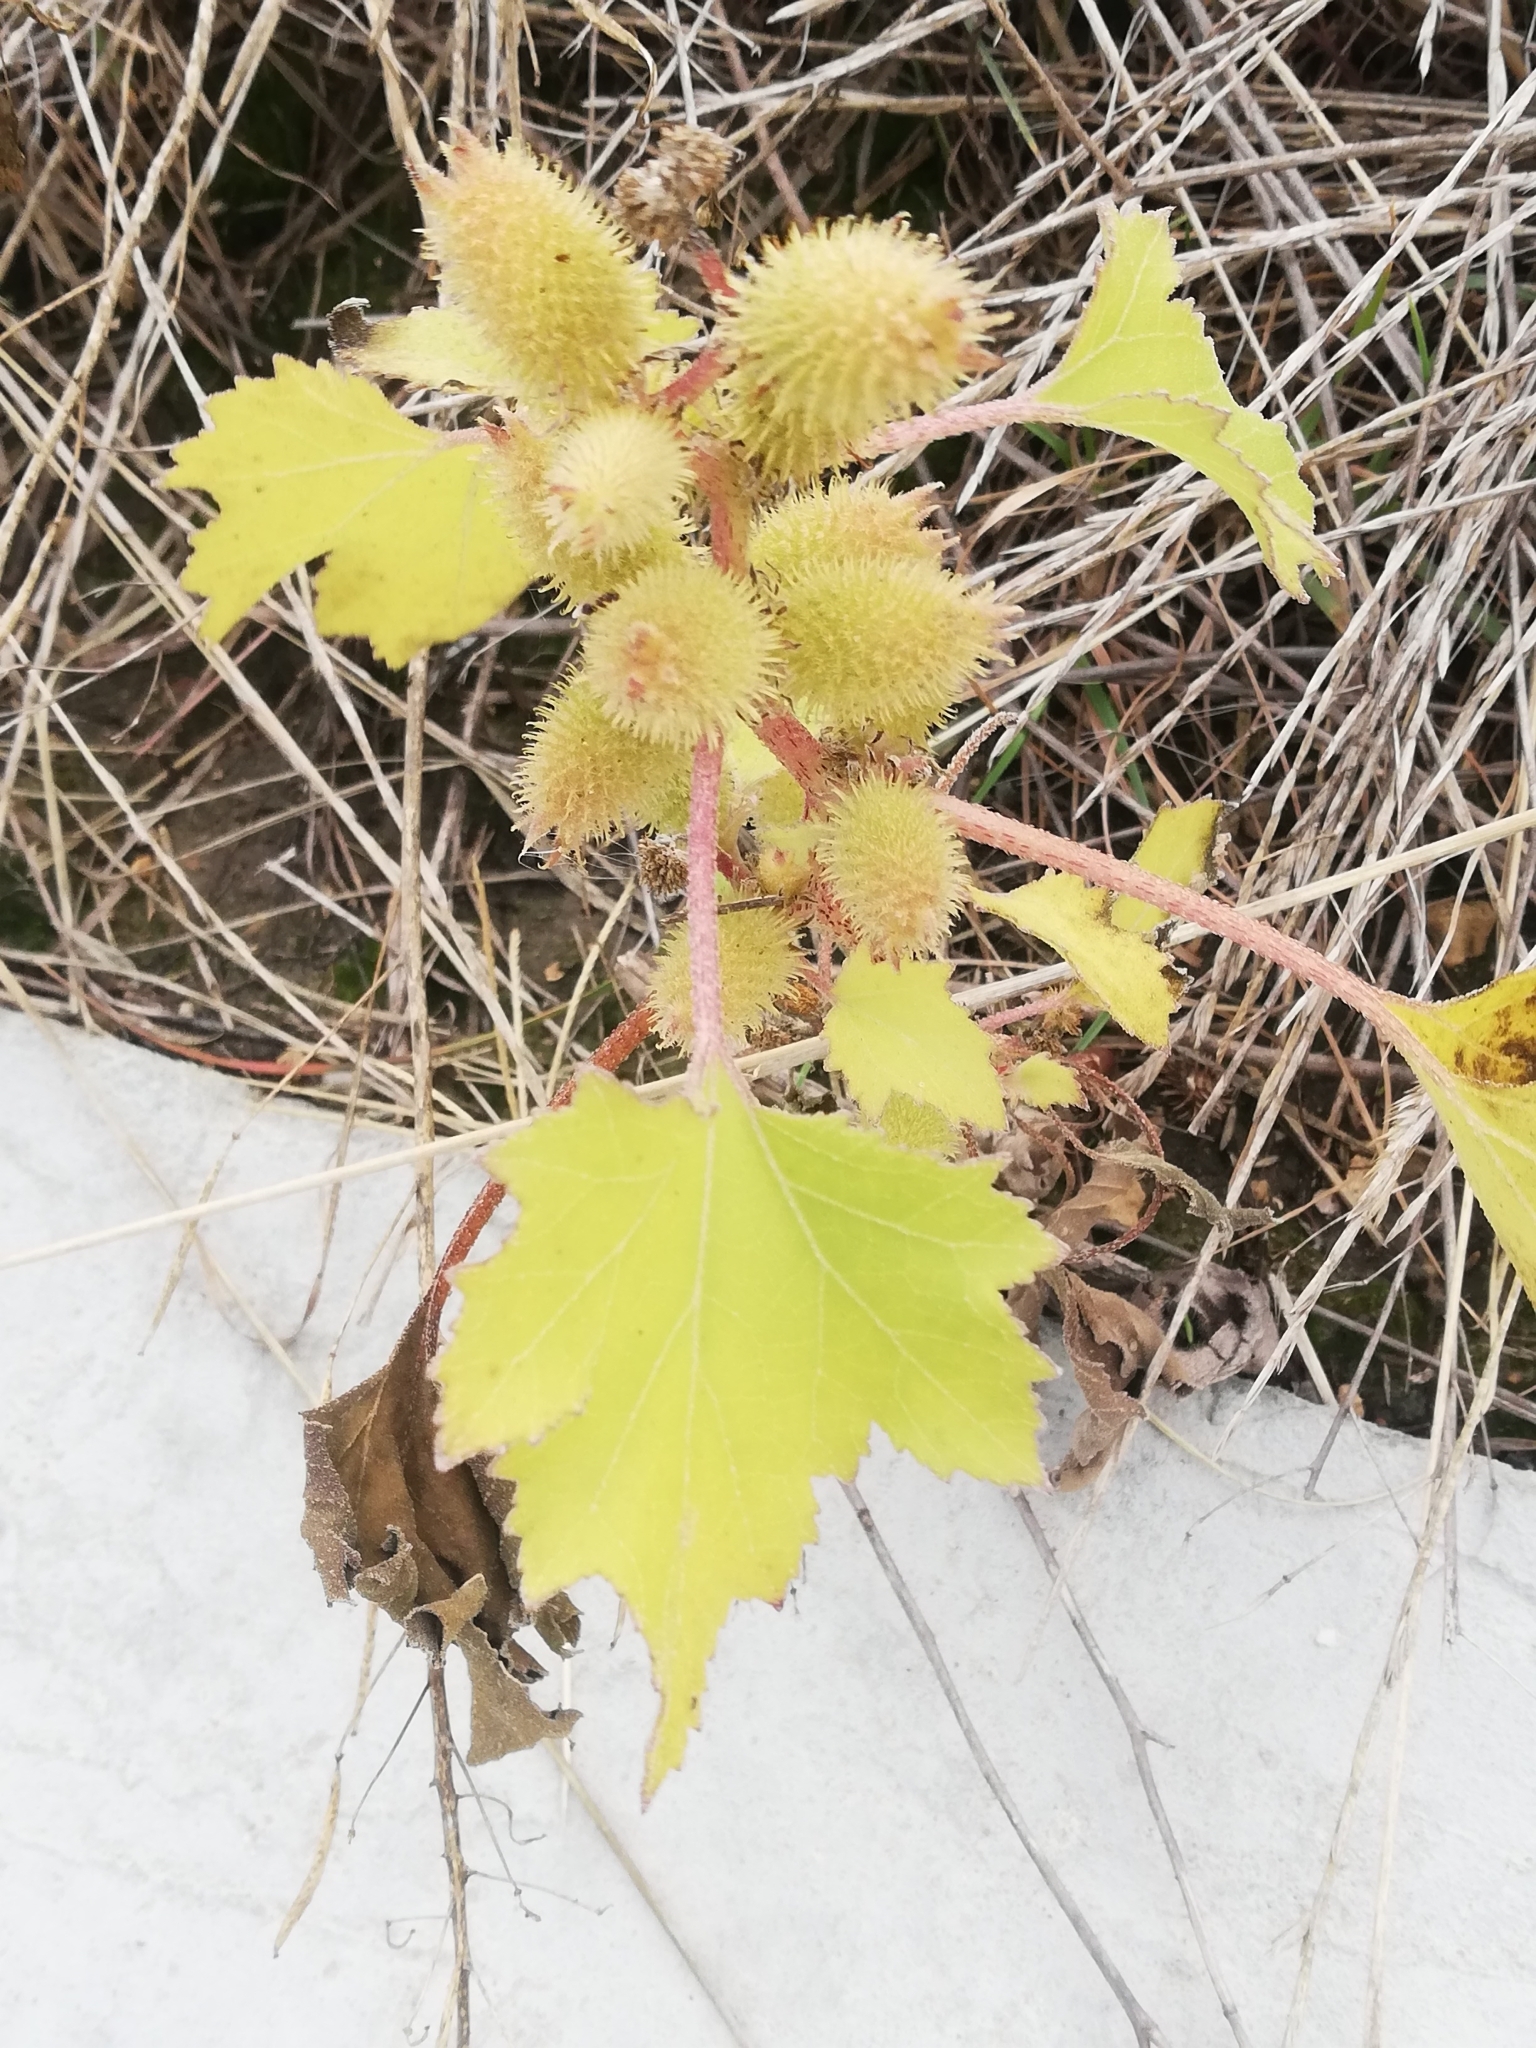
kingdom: Plantae
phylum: Tracheophyta
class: Magnoliopsida
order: Asterales
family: Asteraceae
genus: Xanthium
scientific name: Xanthium orientale
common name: Californian burr
